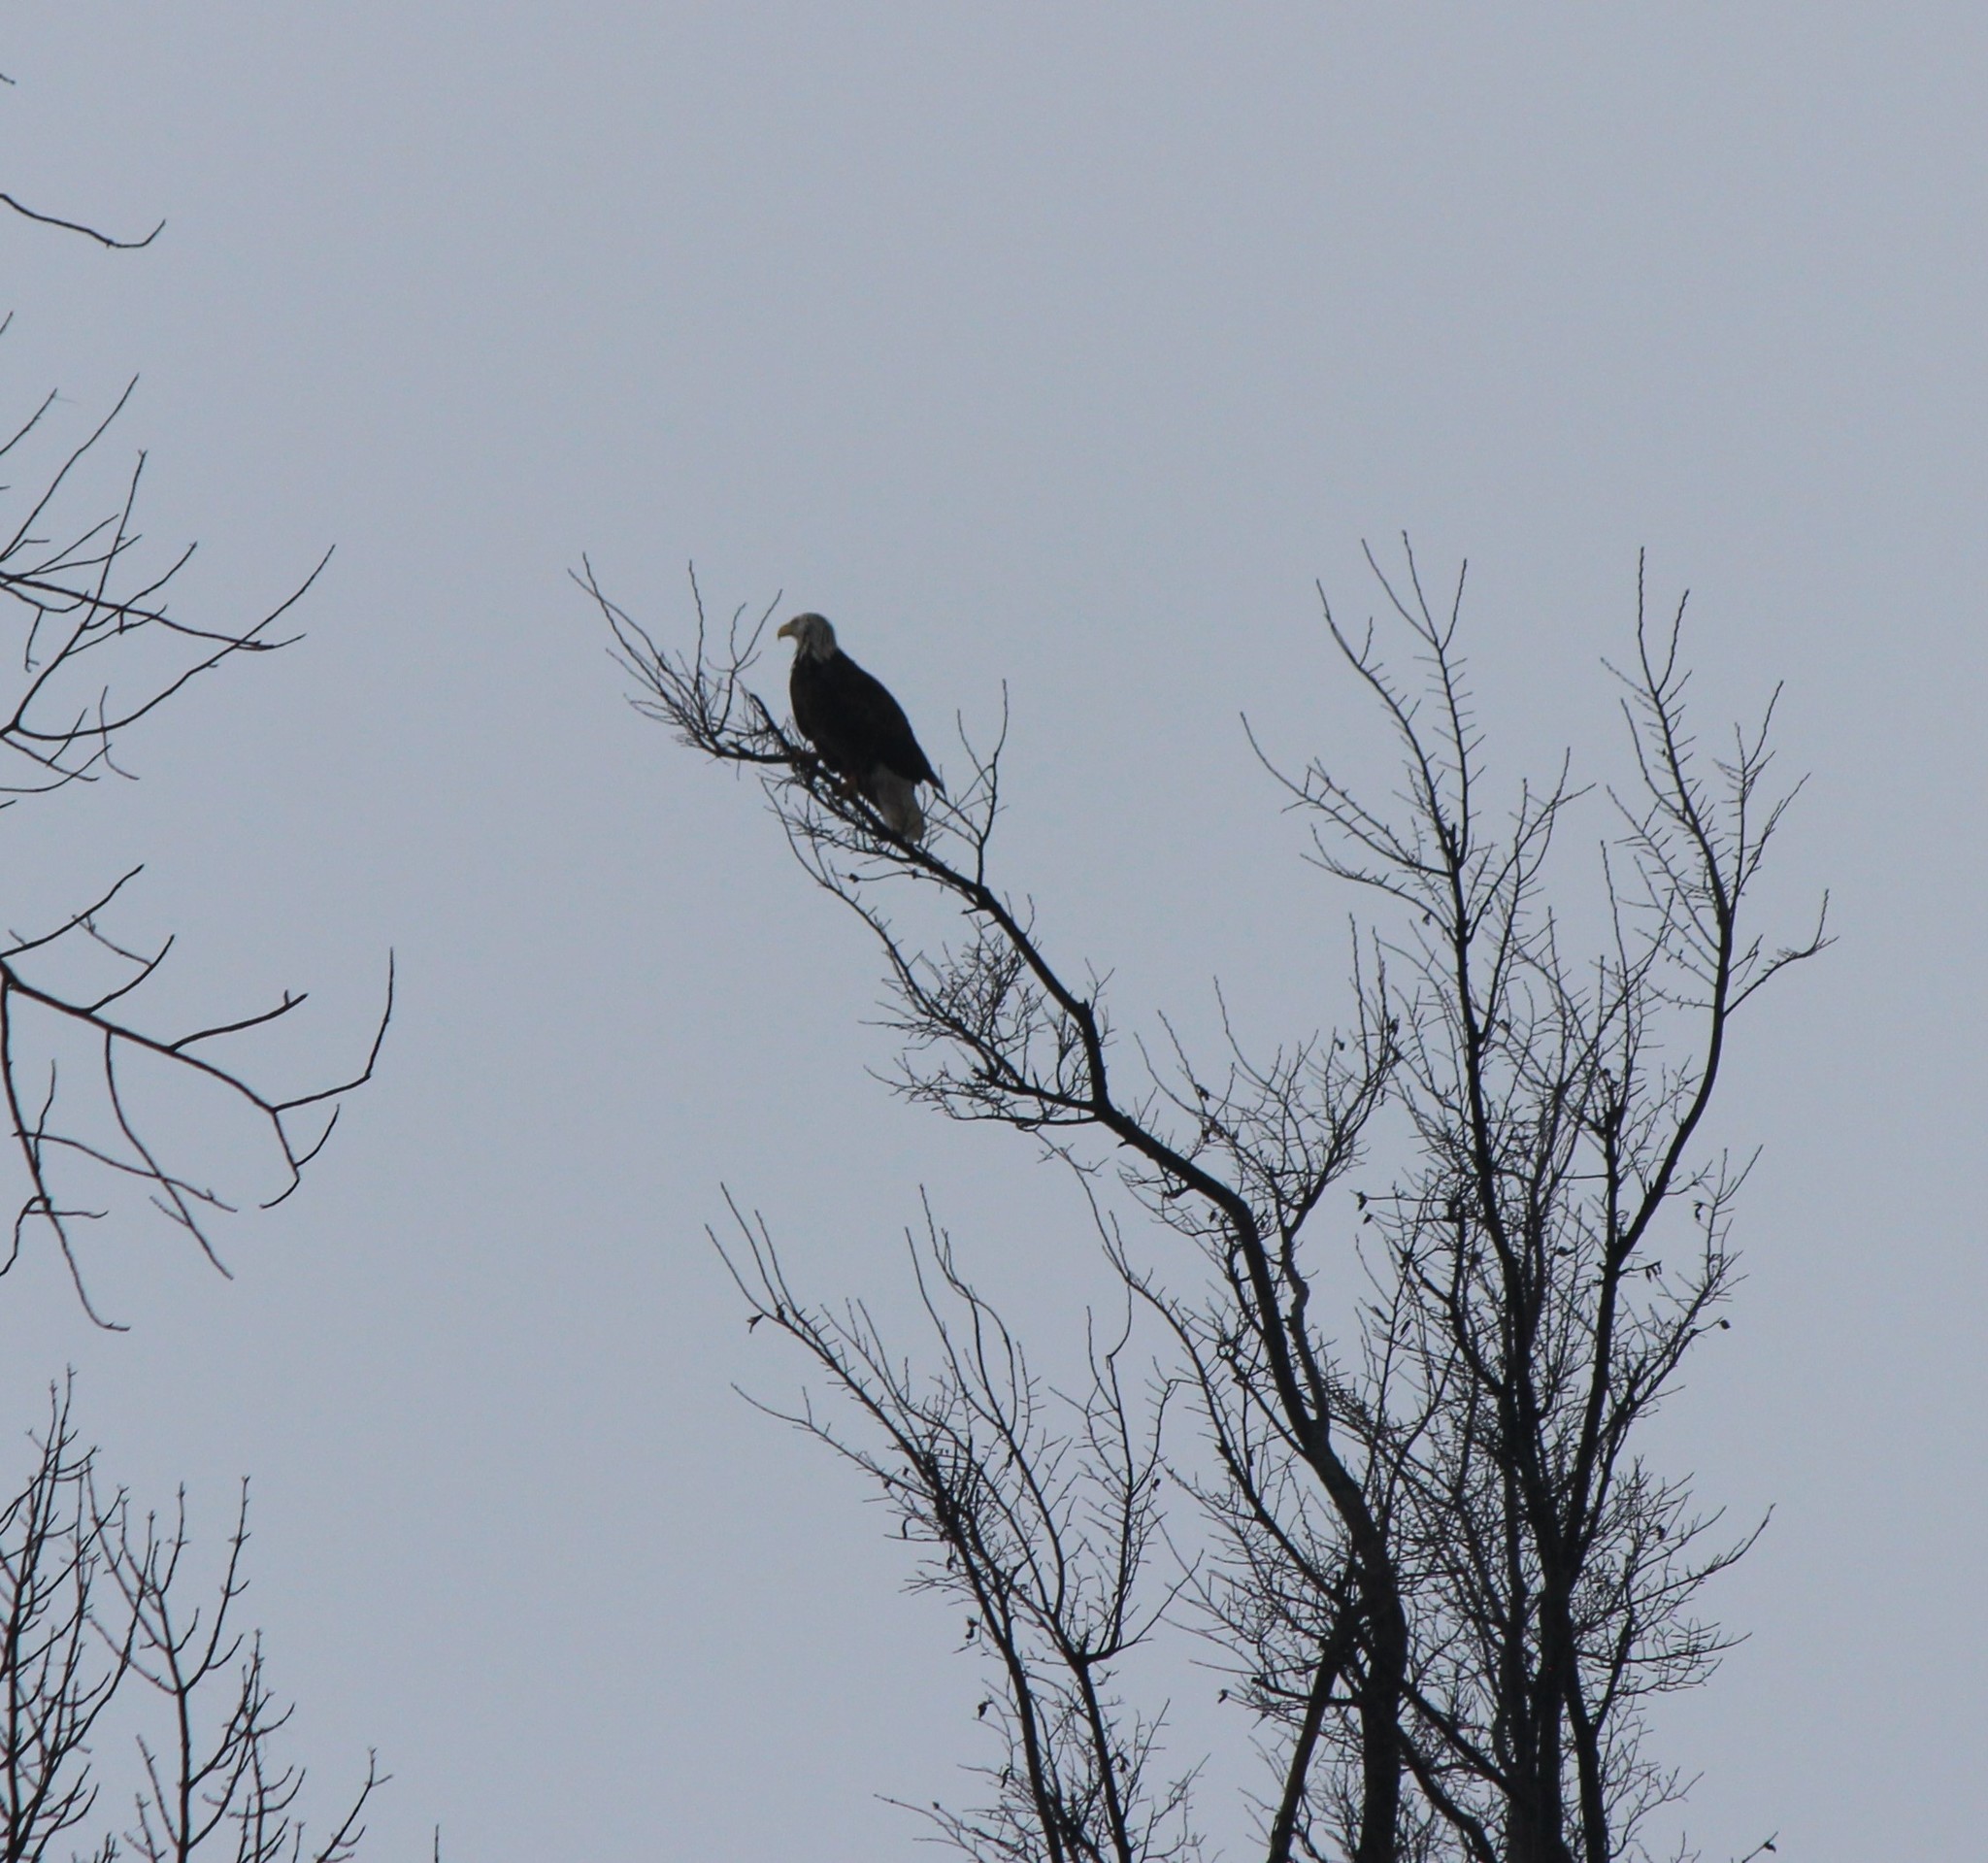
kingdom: Animalia
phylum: Chordata
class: Aves
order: Accipitriformes
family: Accipitridae
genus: Haliaeetus
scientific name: Haliaeetus leucocephalus
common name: Bald eagle
